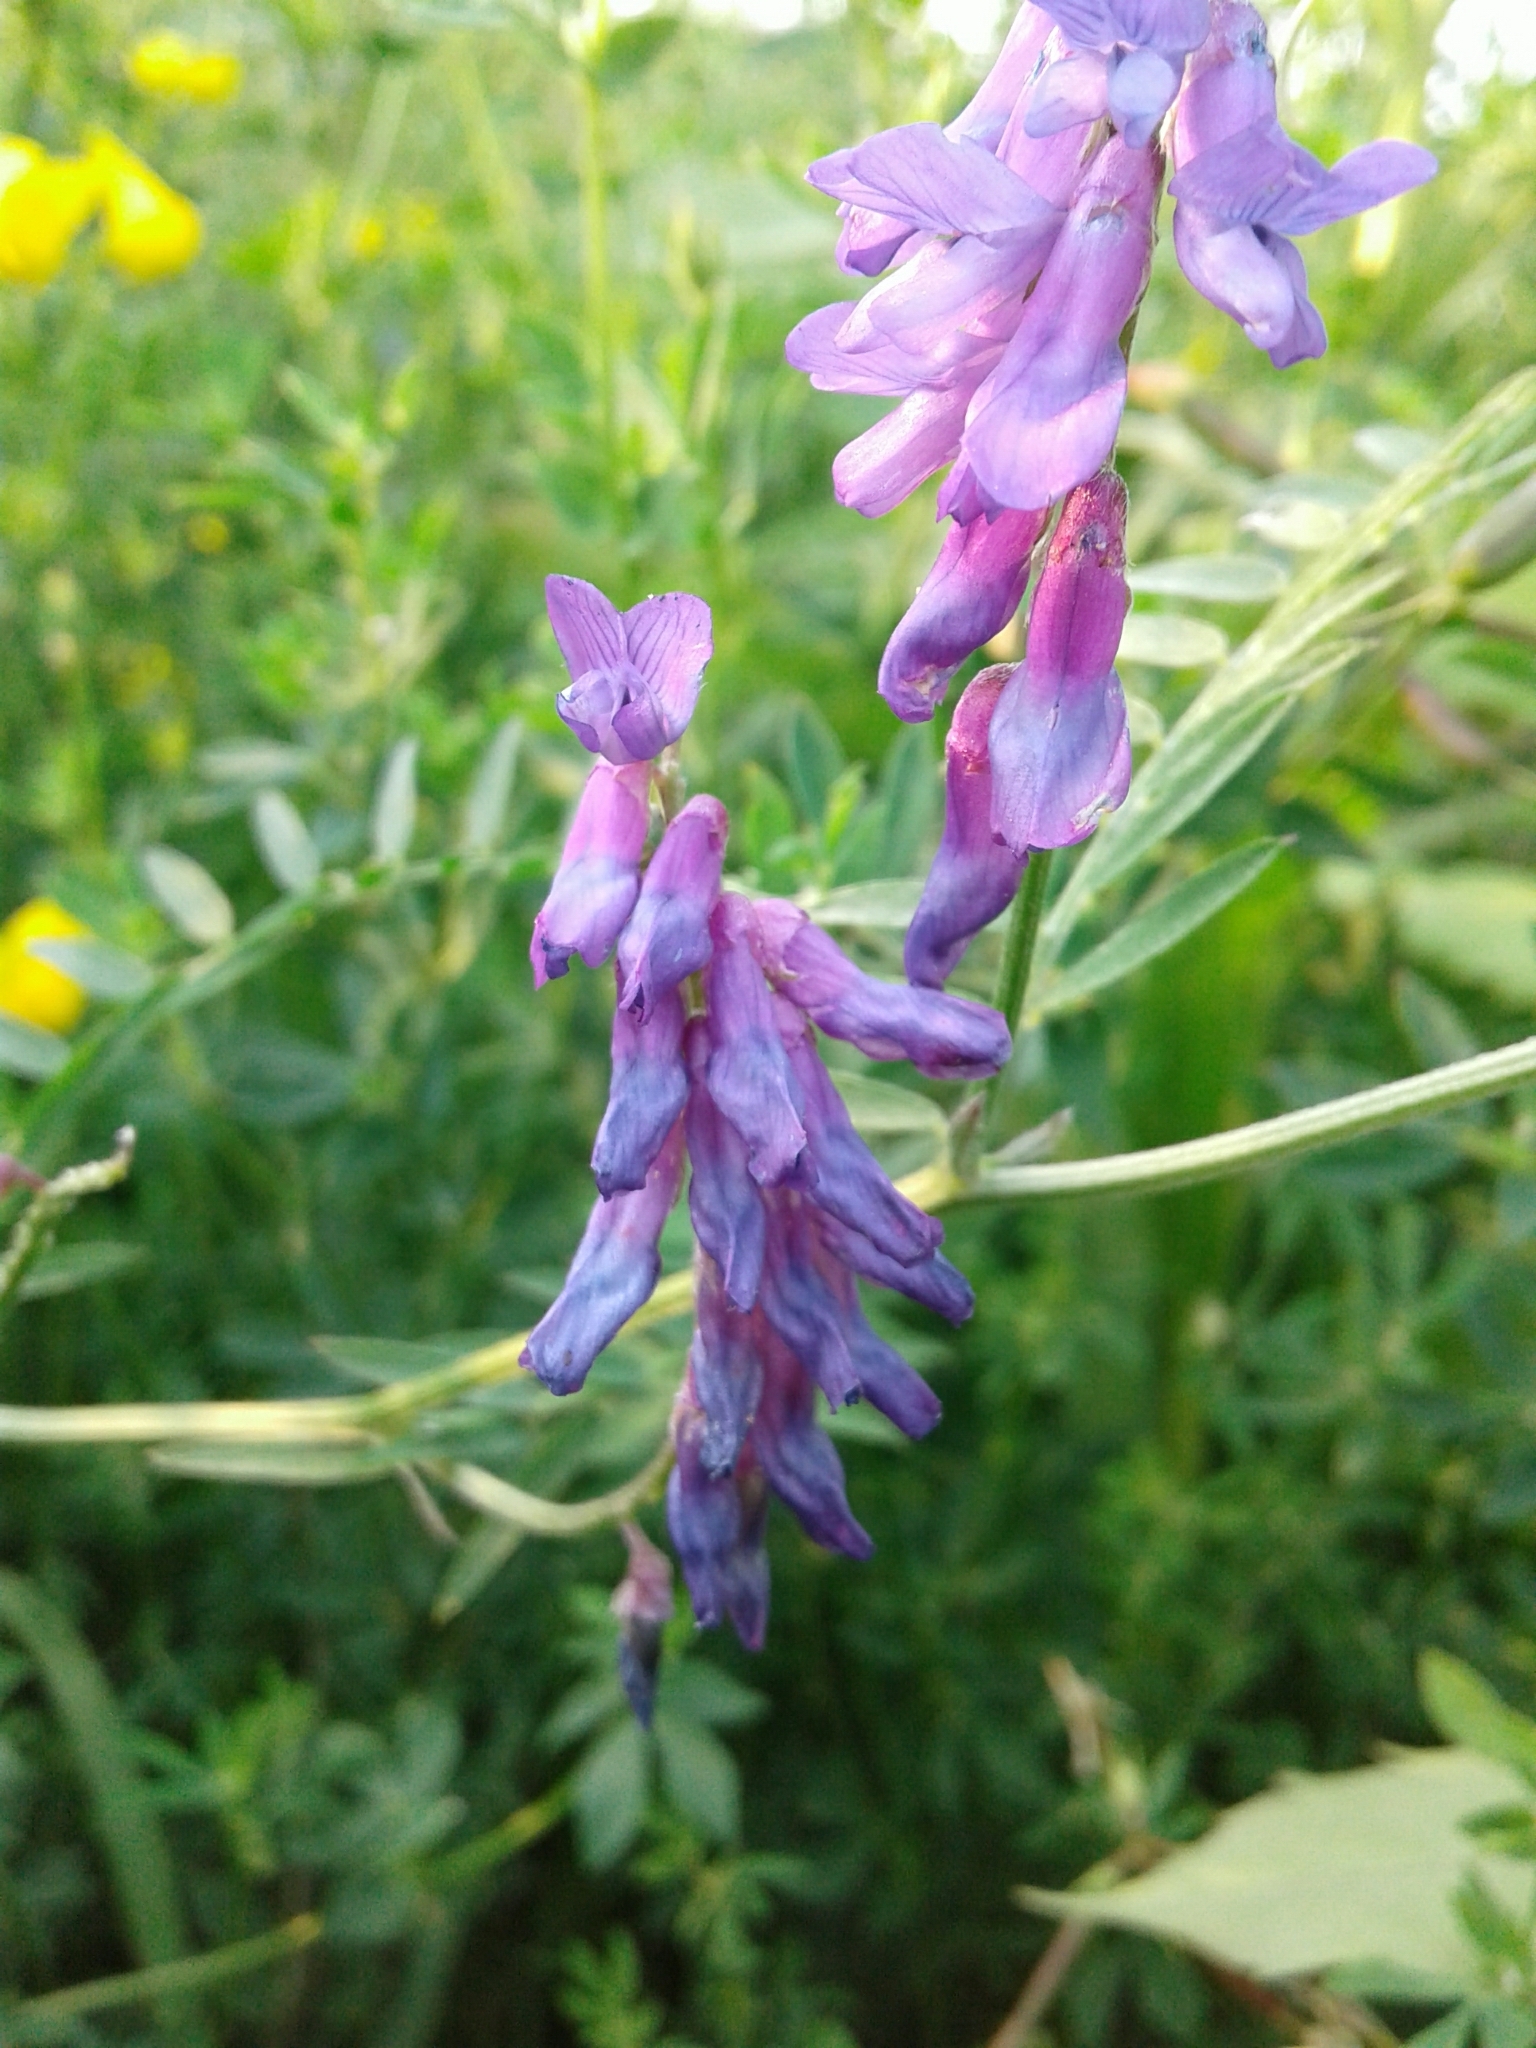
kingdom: Plantae
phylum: Tracheophyta
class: Magnoliopsida
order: Fabales
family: Fabaceae
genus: Vicia
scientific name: Vicia cracca
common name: Bird vetch
